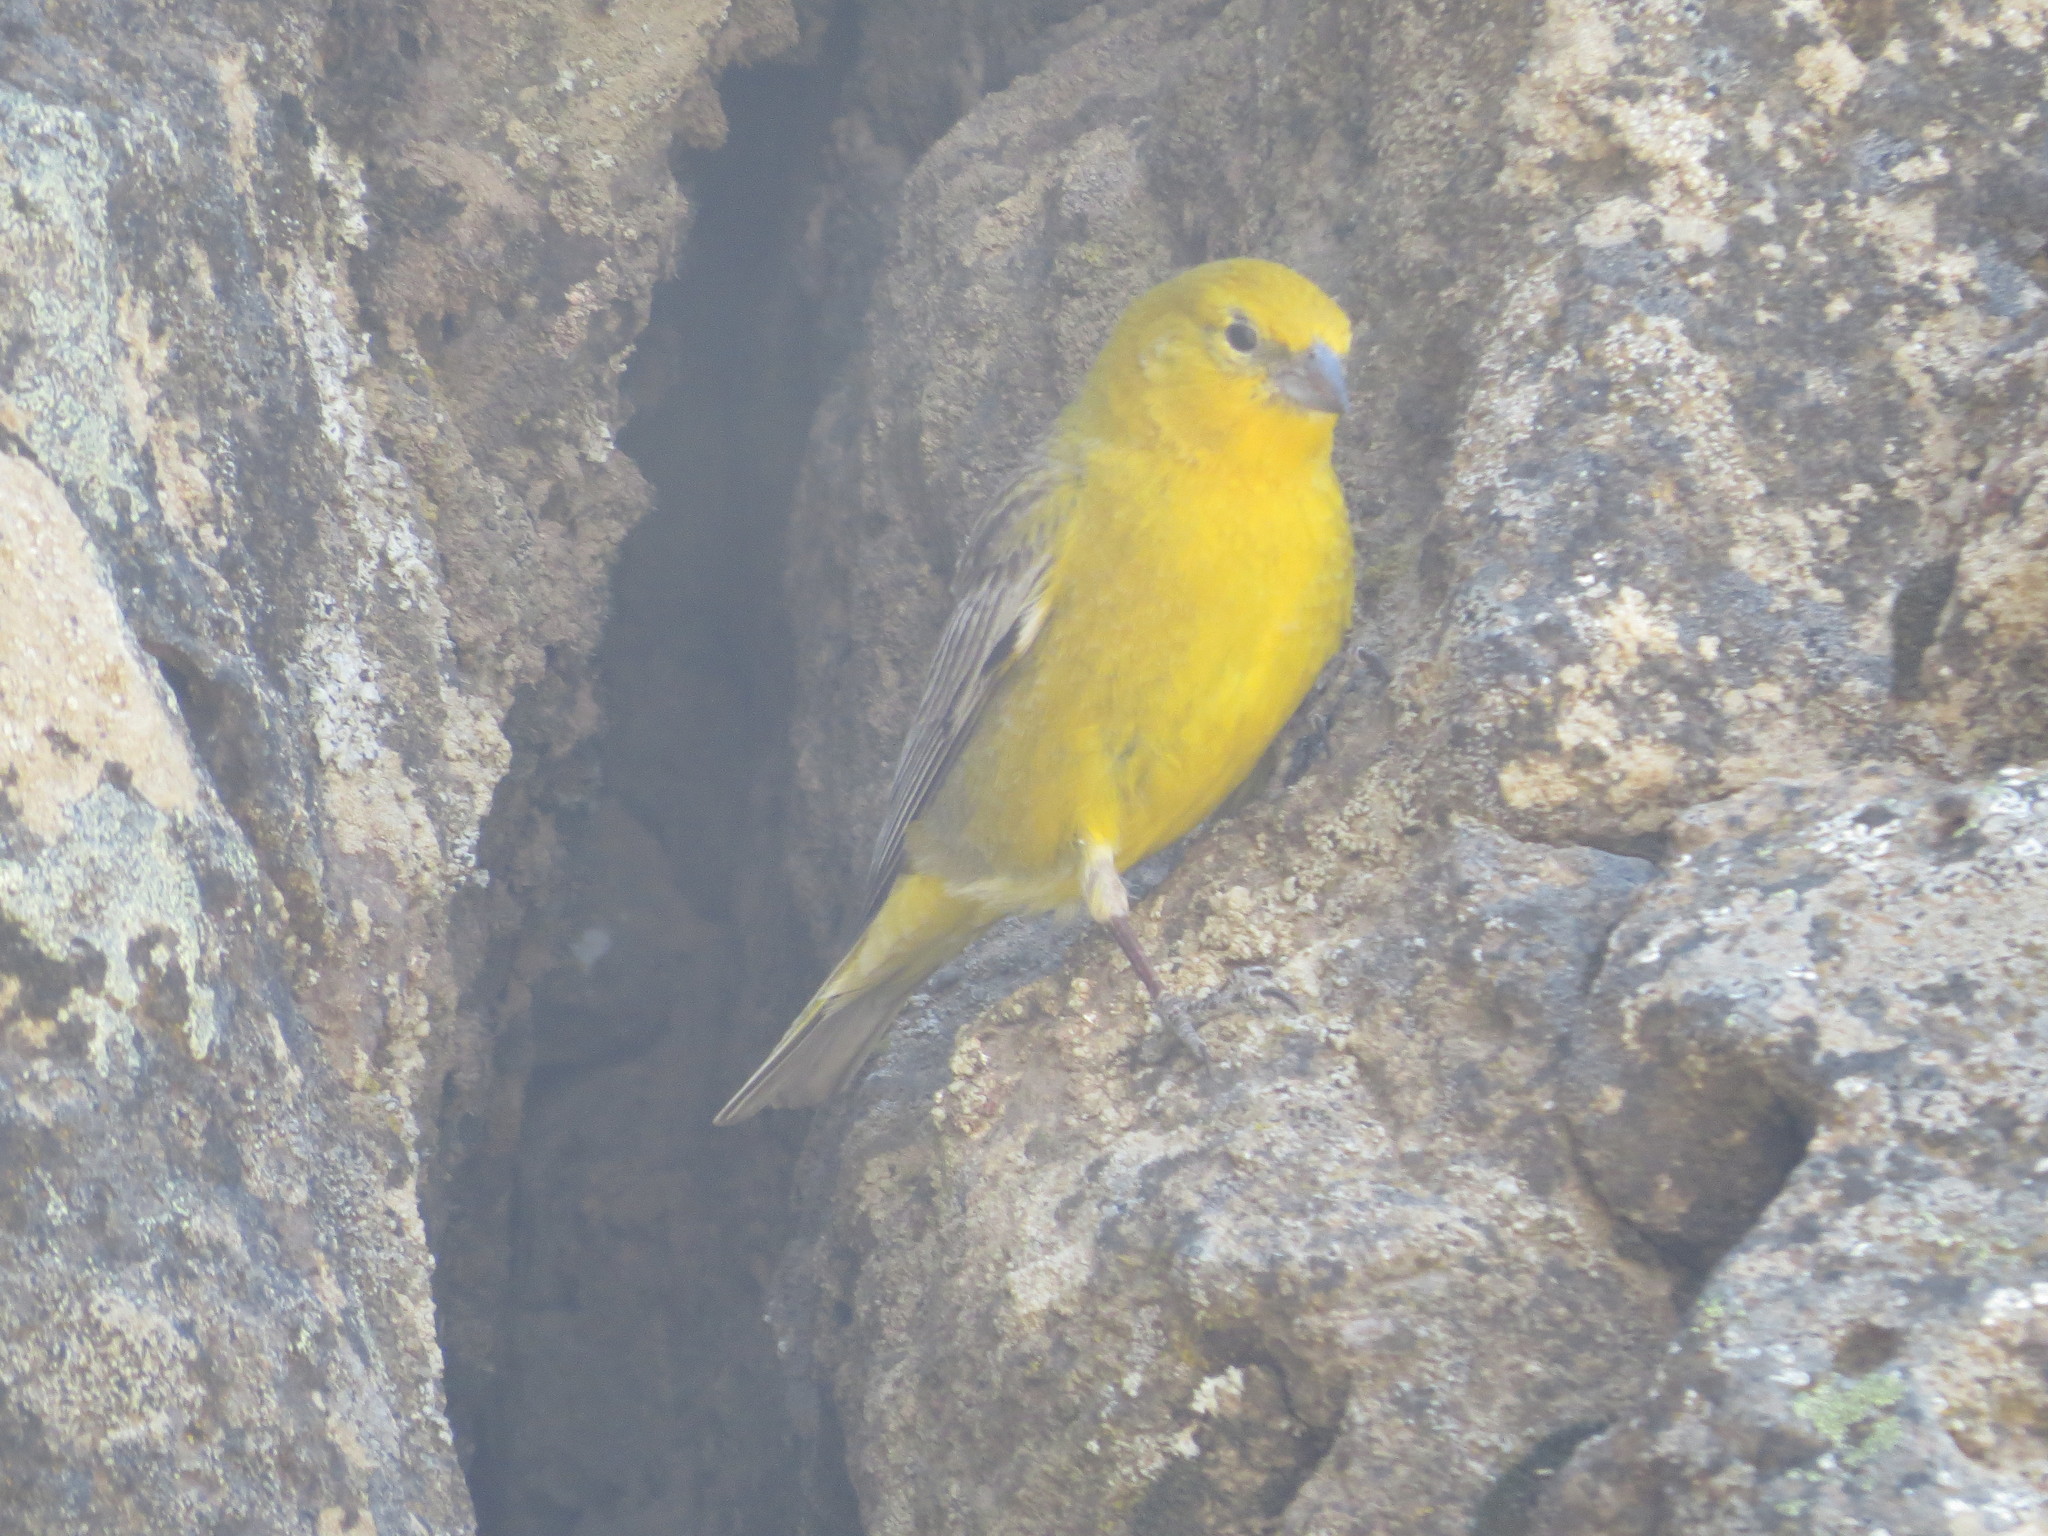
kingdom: Animalia
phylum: Chordata
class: Aves
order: Passeriformes
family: Thraupidae
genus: Sicalis
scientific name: Sicalis auriventris
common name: Greater yellow finch
